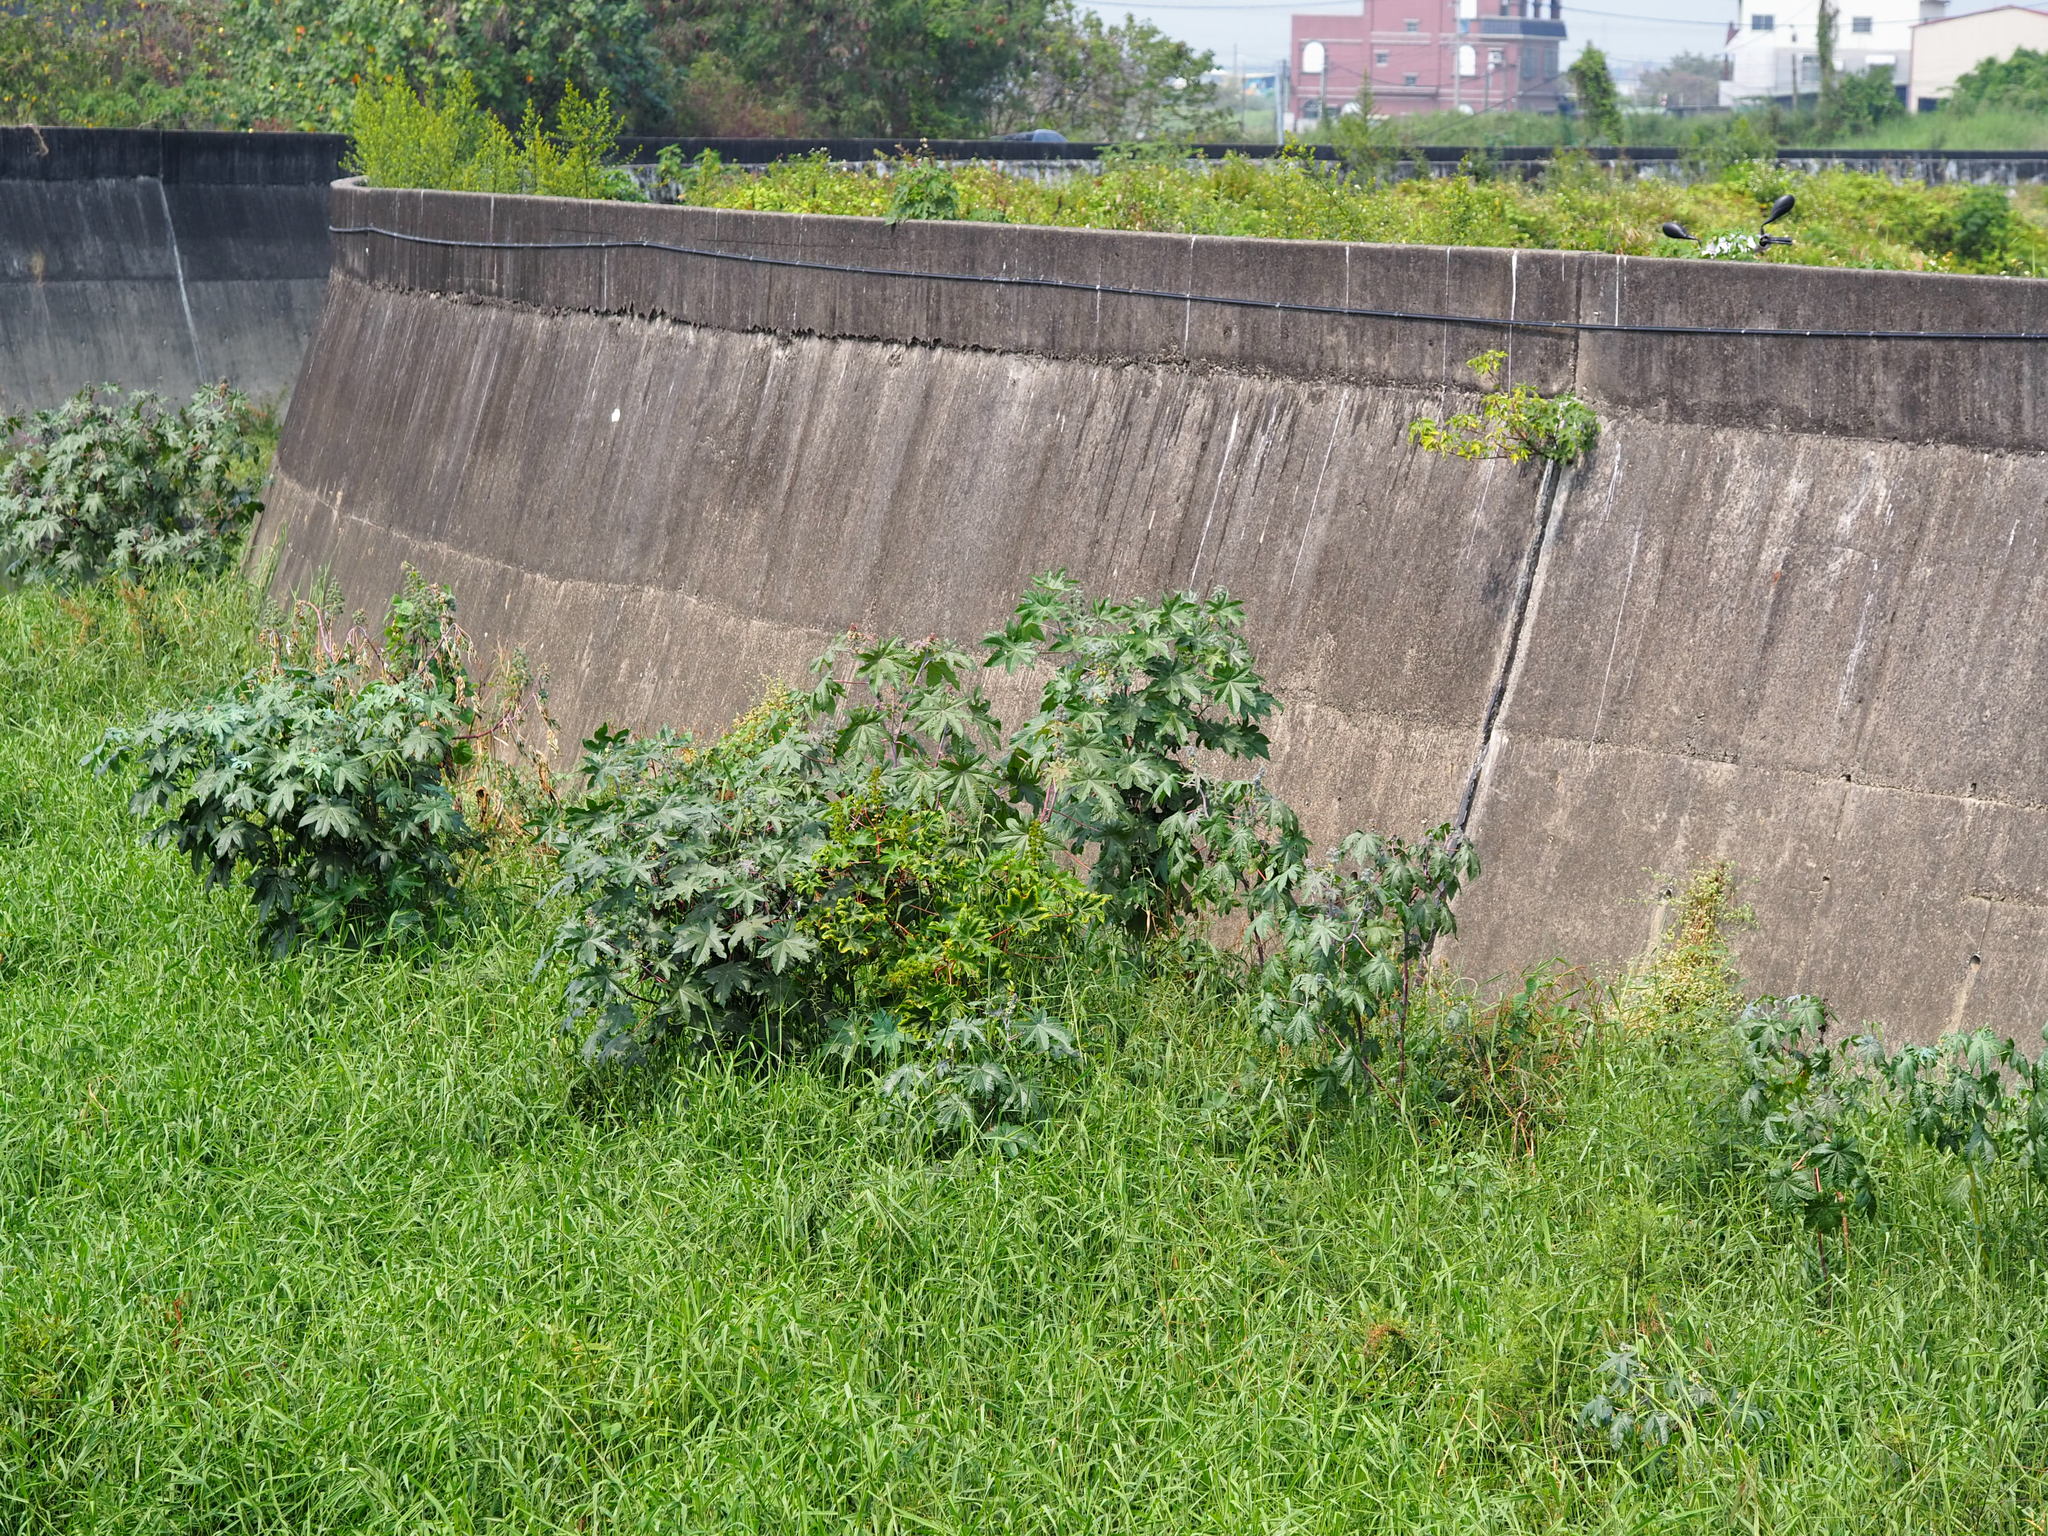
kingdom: Plantae
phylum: Tracheophyta
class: Magnoliopsida
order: Malpighiales
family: Euphorbiaceae
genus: Ricinus
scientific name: Ricinus communis
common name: Castor-oil-plant
